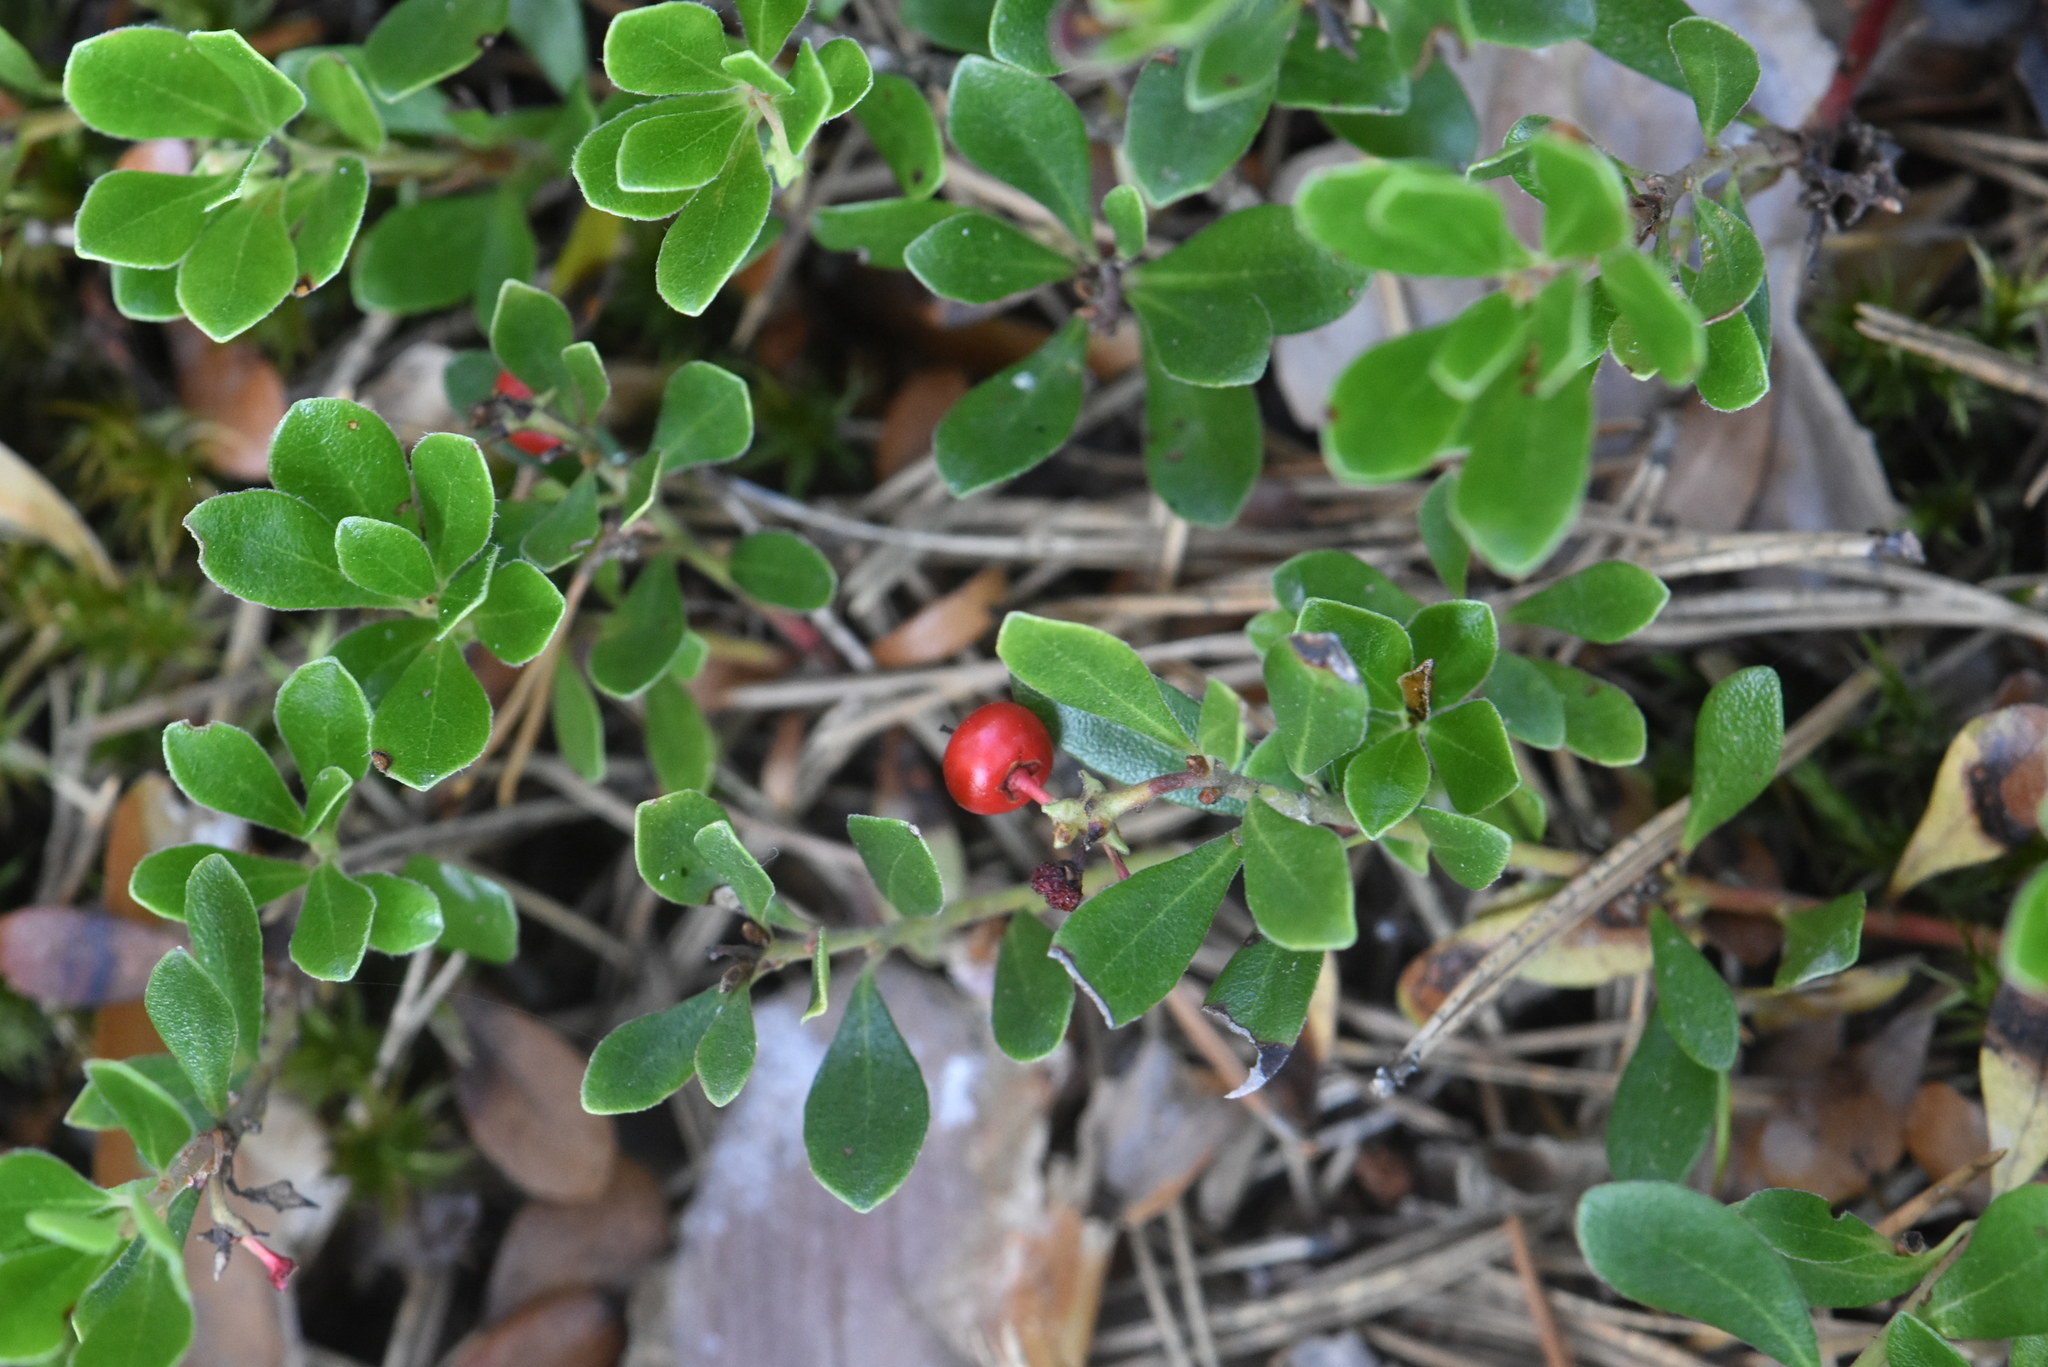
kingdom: Plantae
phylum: Tracheophyta
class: Magnoliopsida
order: Ericales
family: Ericaceae
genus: Arctostaphylos
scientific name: Arctostaphylos uva-ursi
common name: Bearberry
